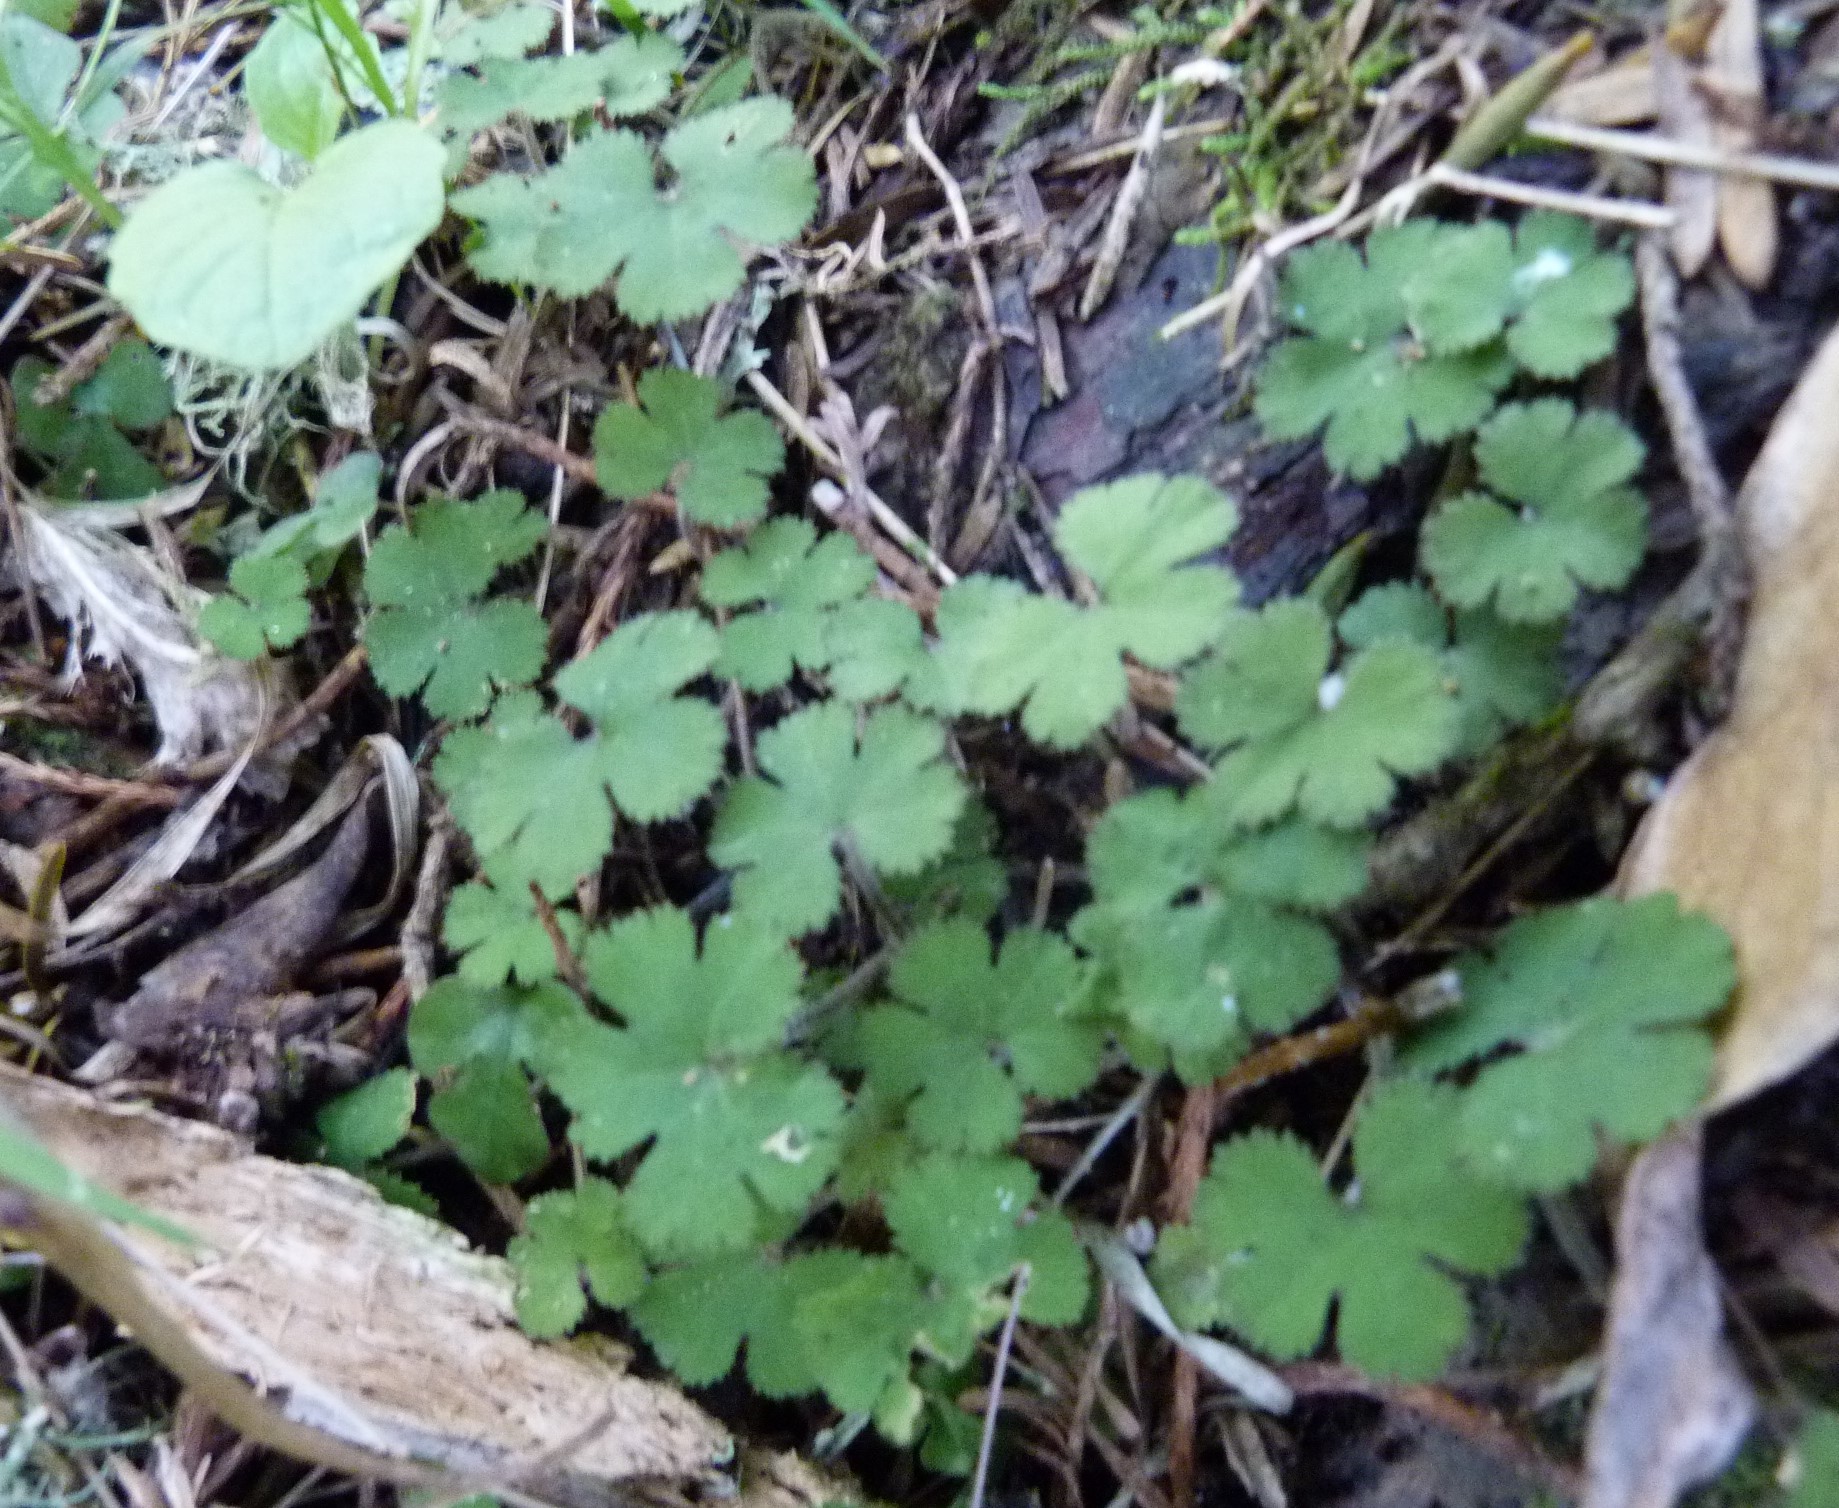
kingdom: Plantae
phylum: Tracheophyta
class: Magnoliopsida
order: Apiales
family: Araliaceae
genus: Hydrocotyle
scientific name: Hydrocotyle elongata
